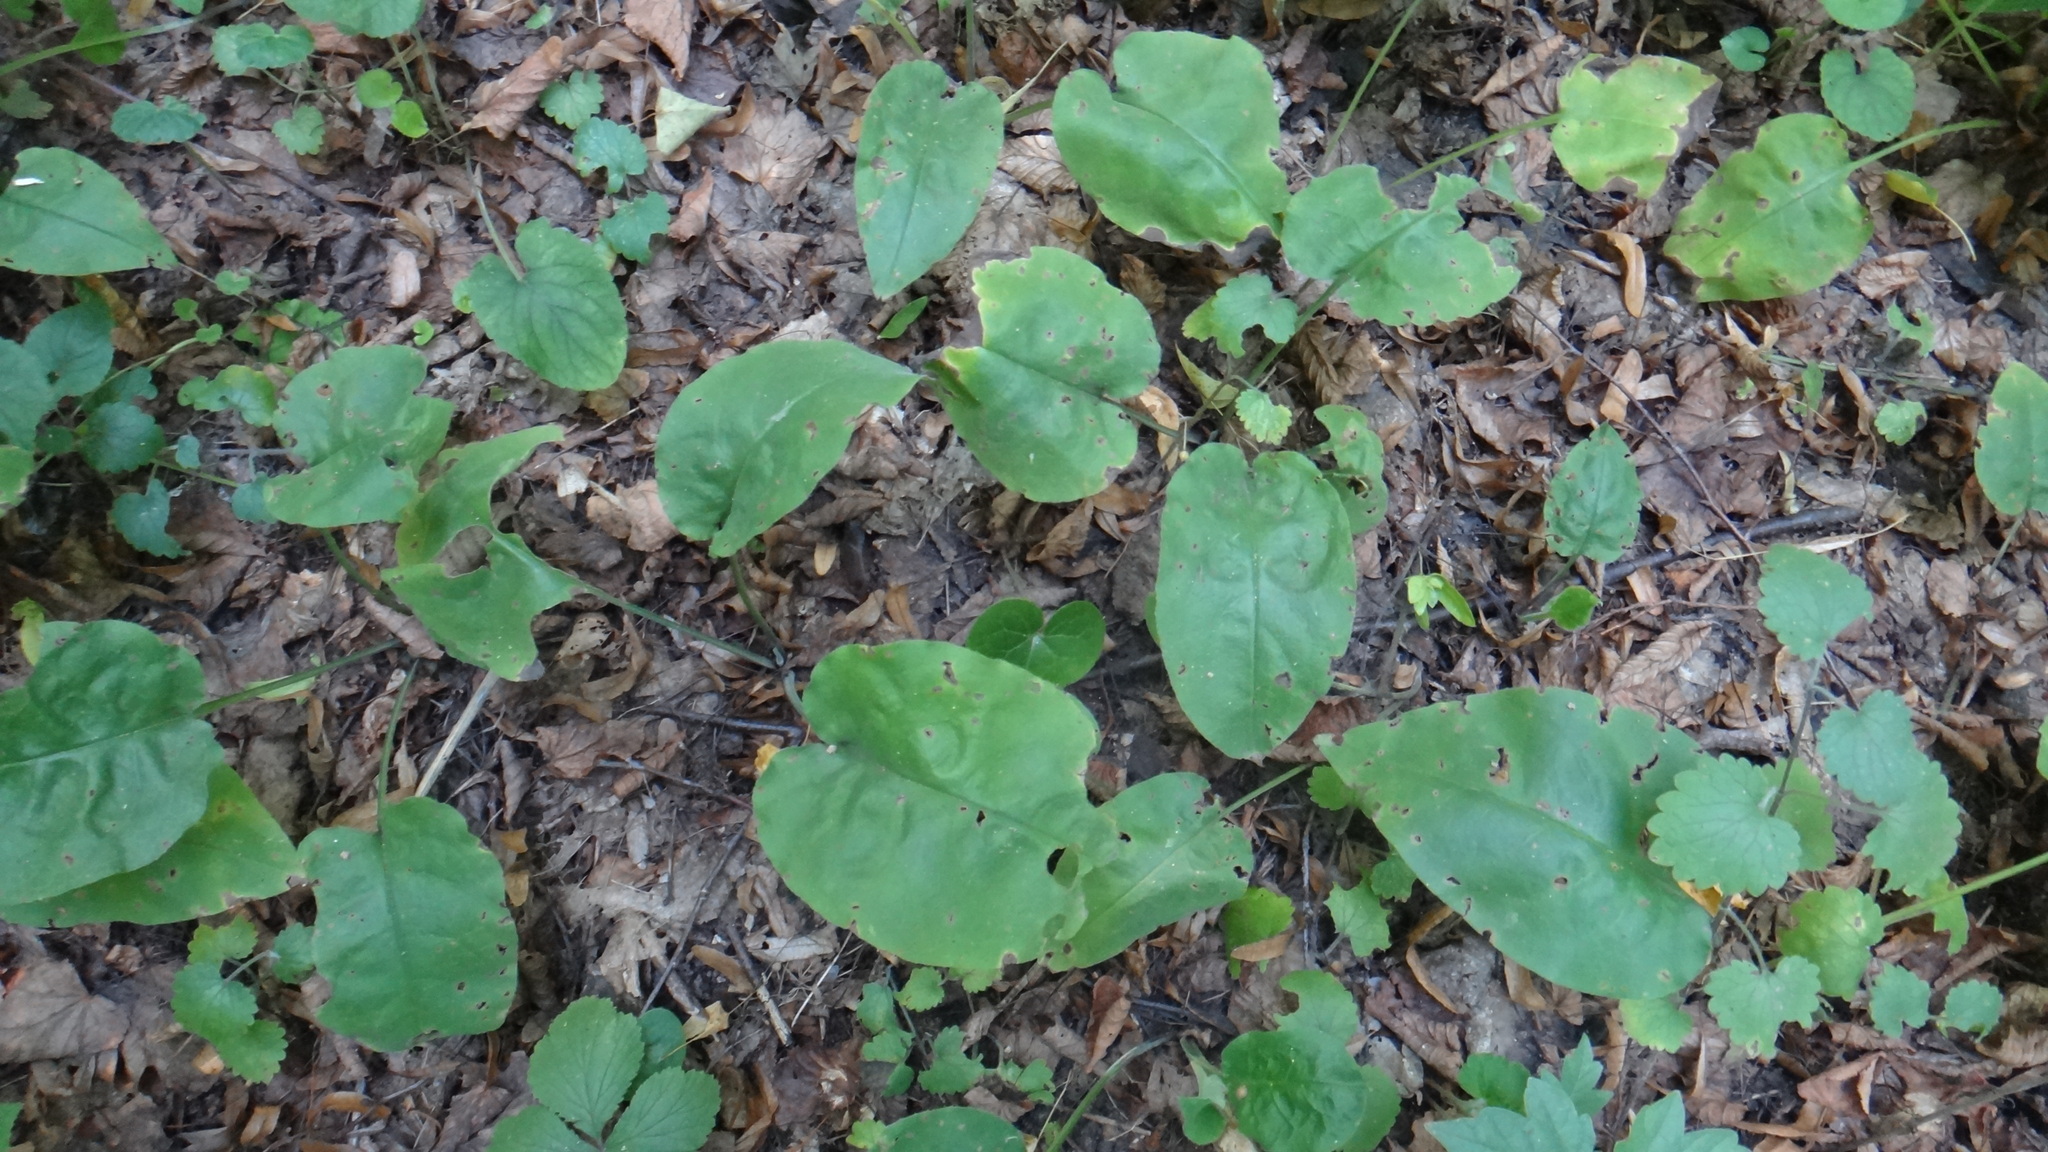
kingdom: Plantae
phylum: Tracheophyta
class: Magnoliopsida
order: Boraginales
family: Boraginaceae
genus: Pulmonaria
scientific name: Pulmonaria obscura
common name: Suffolk lungwort
